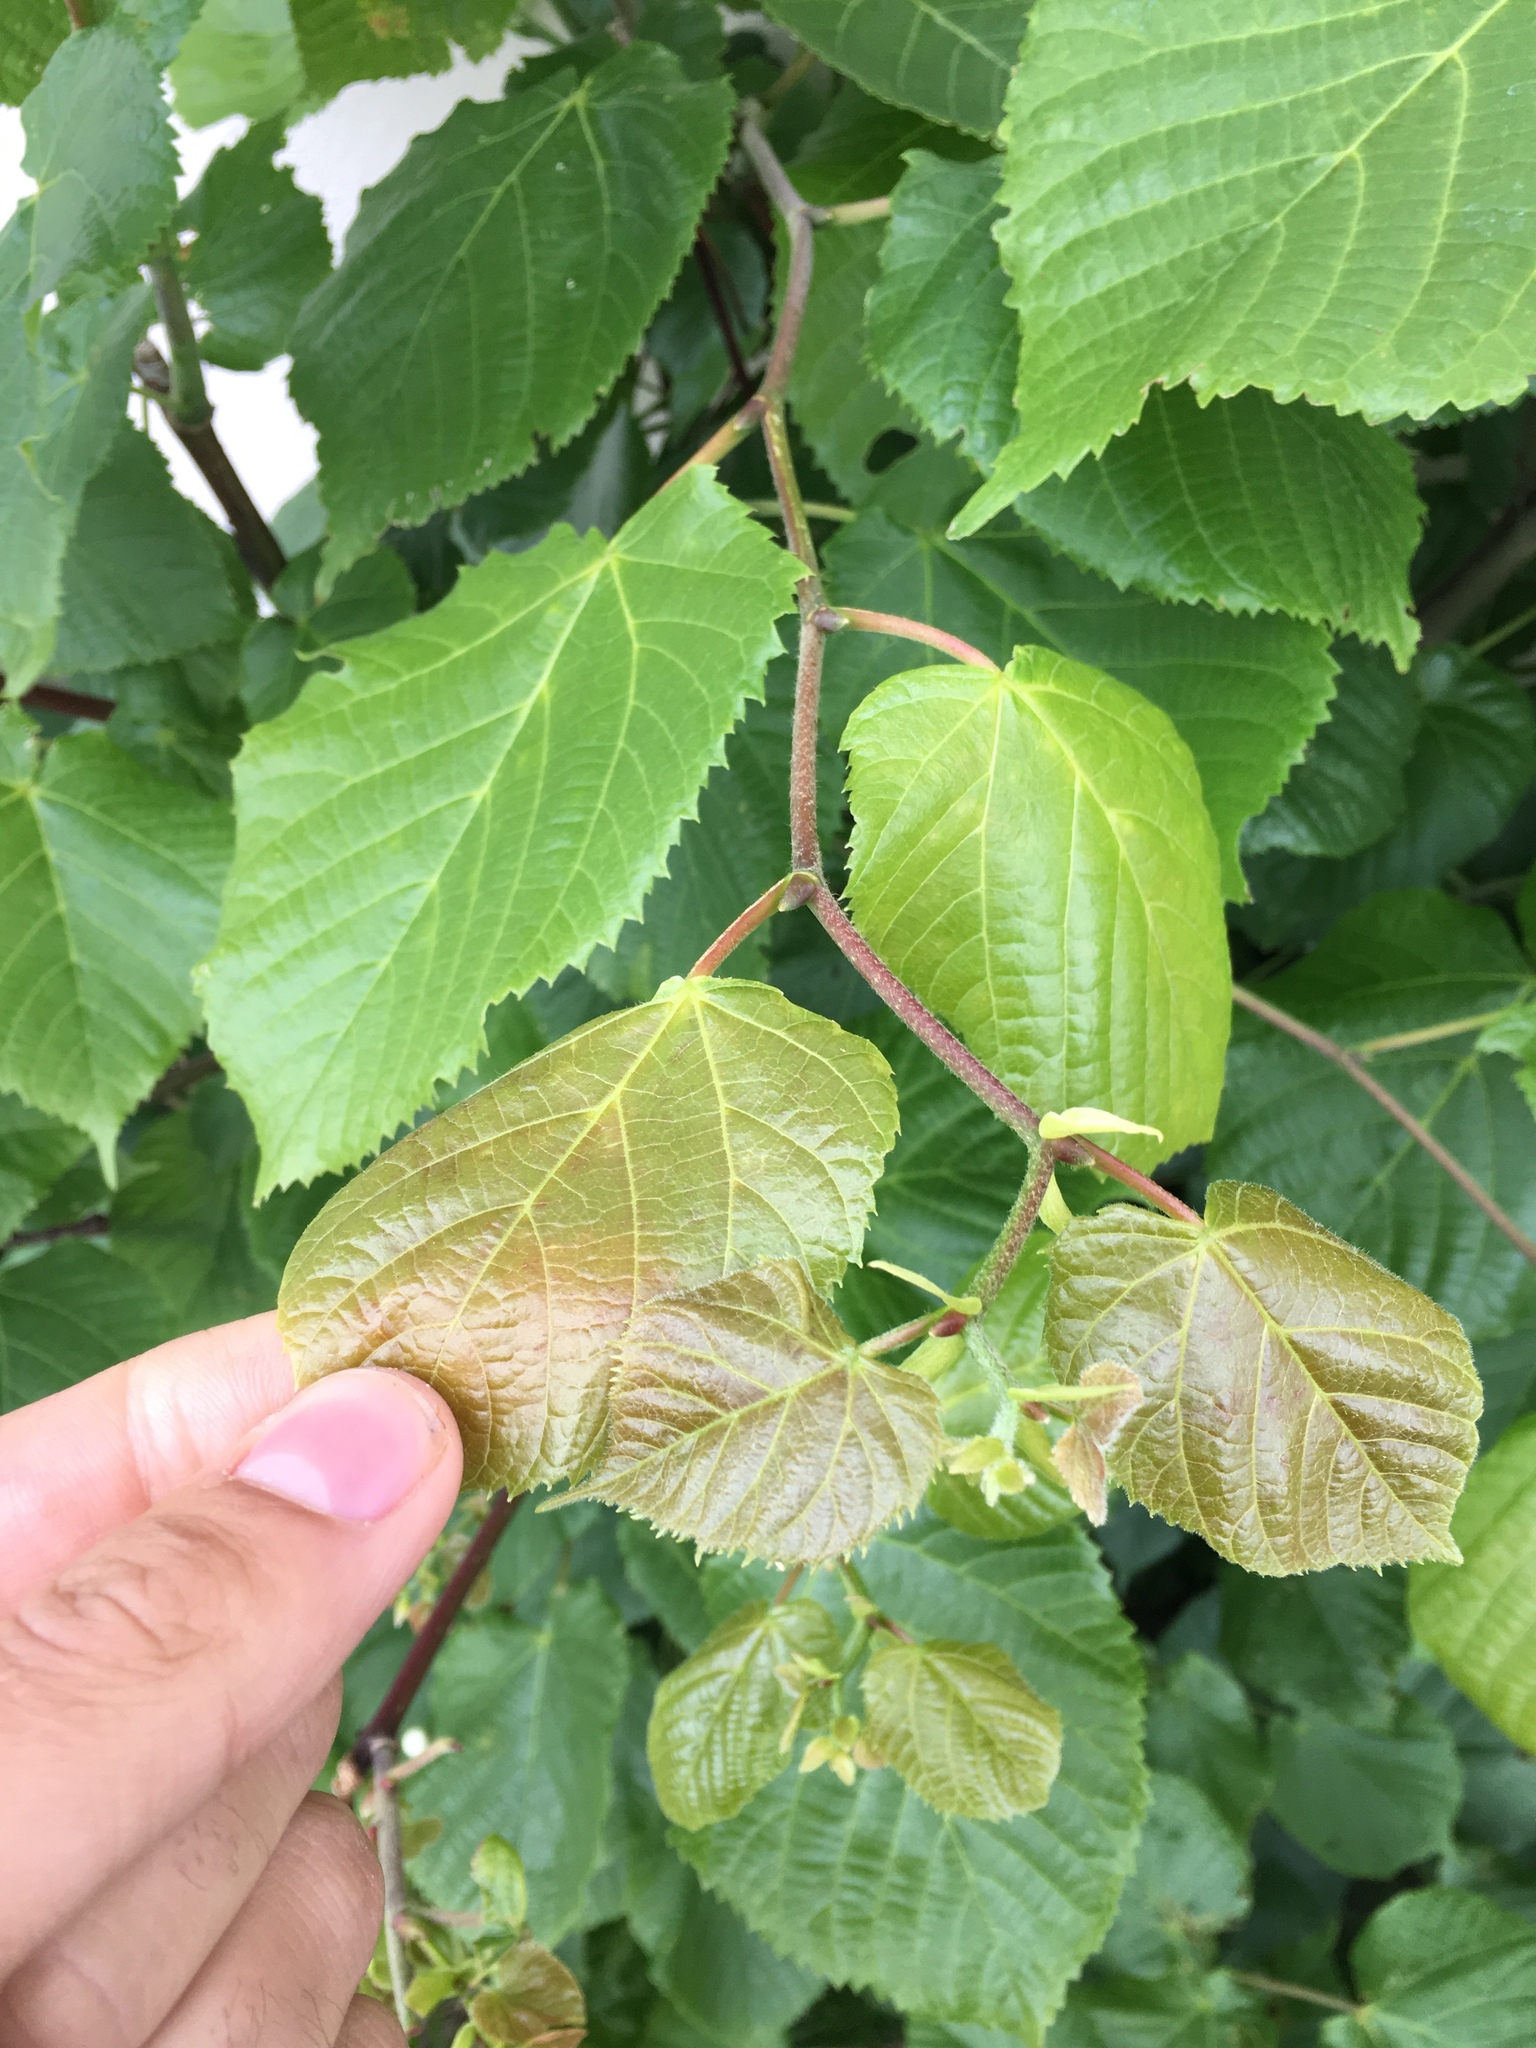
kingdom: Plantae
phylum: Tracheophyta
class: Magnoliopsida
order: Malvales
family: Malvaceae
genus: Tilia
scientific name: Tilia europaea
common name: European linden
